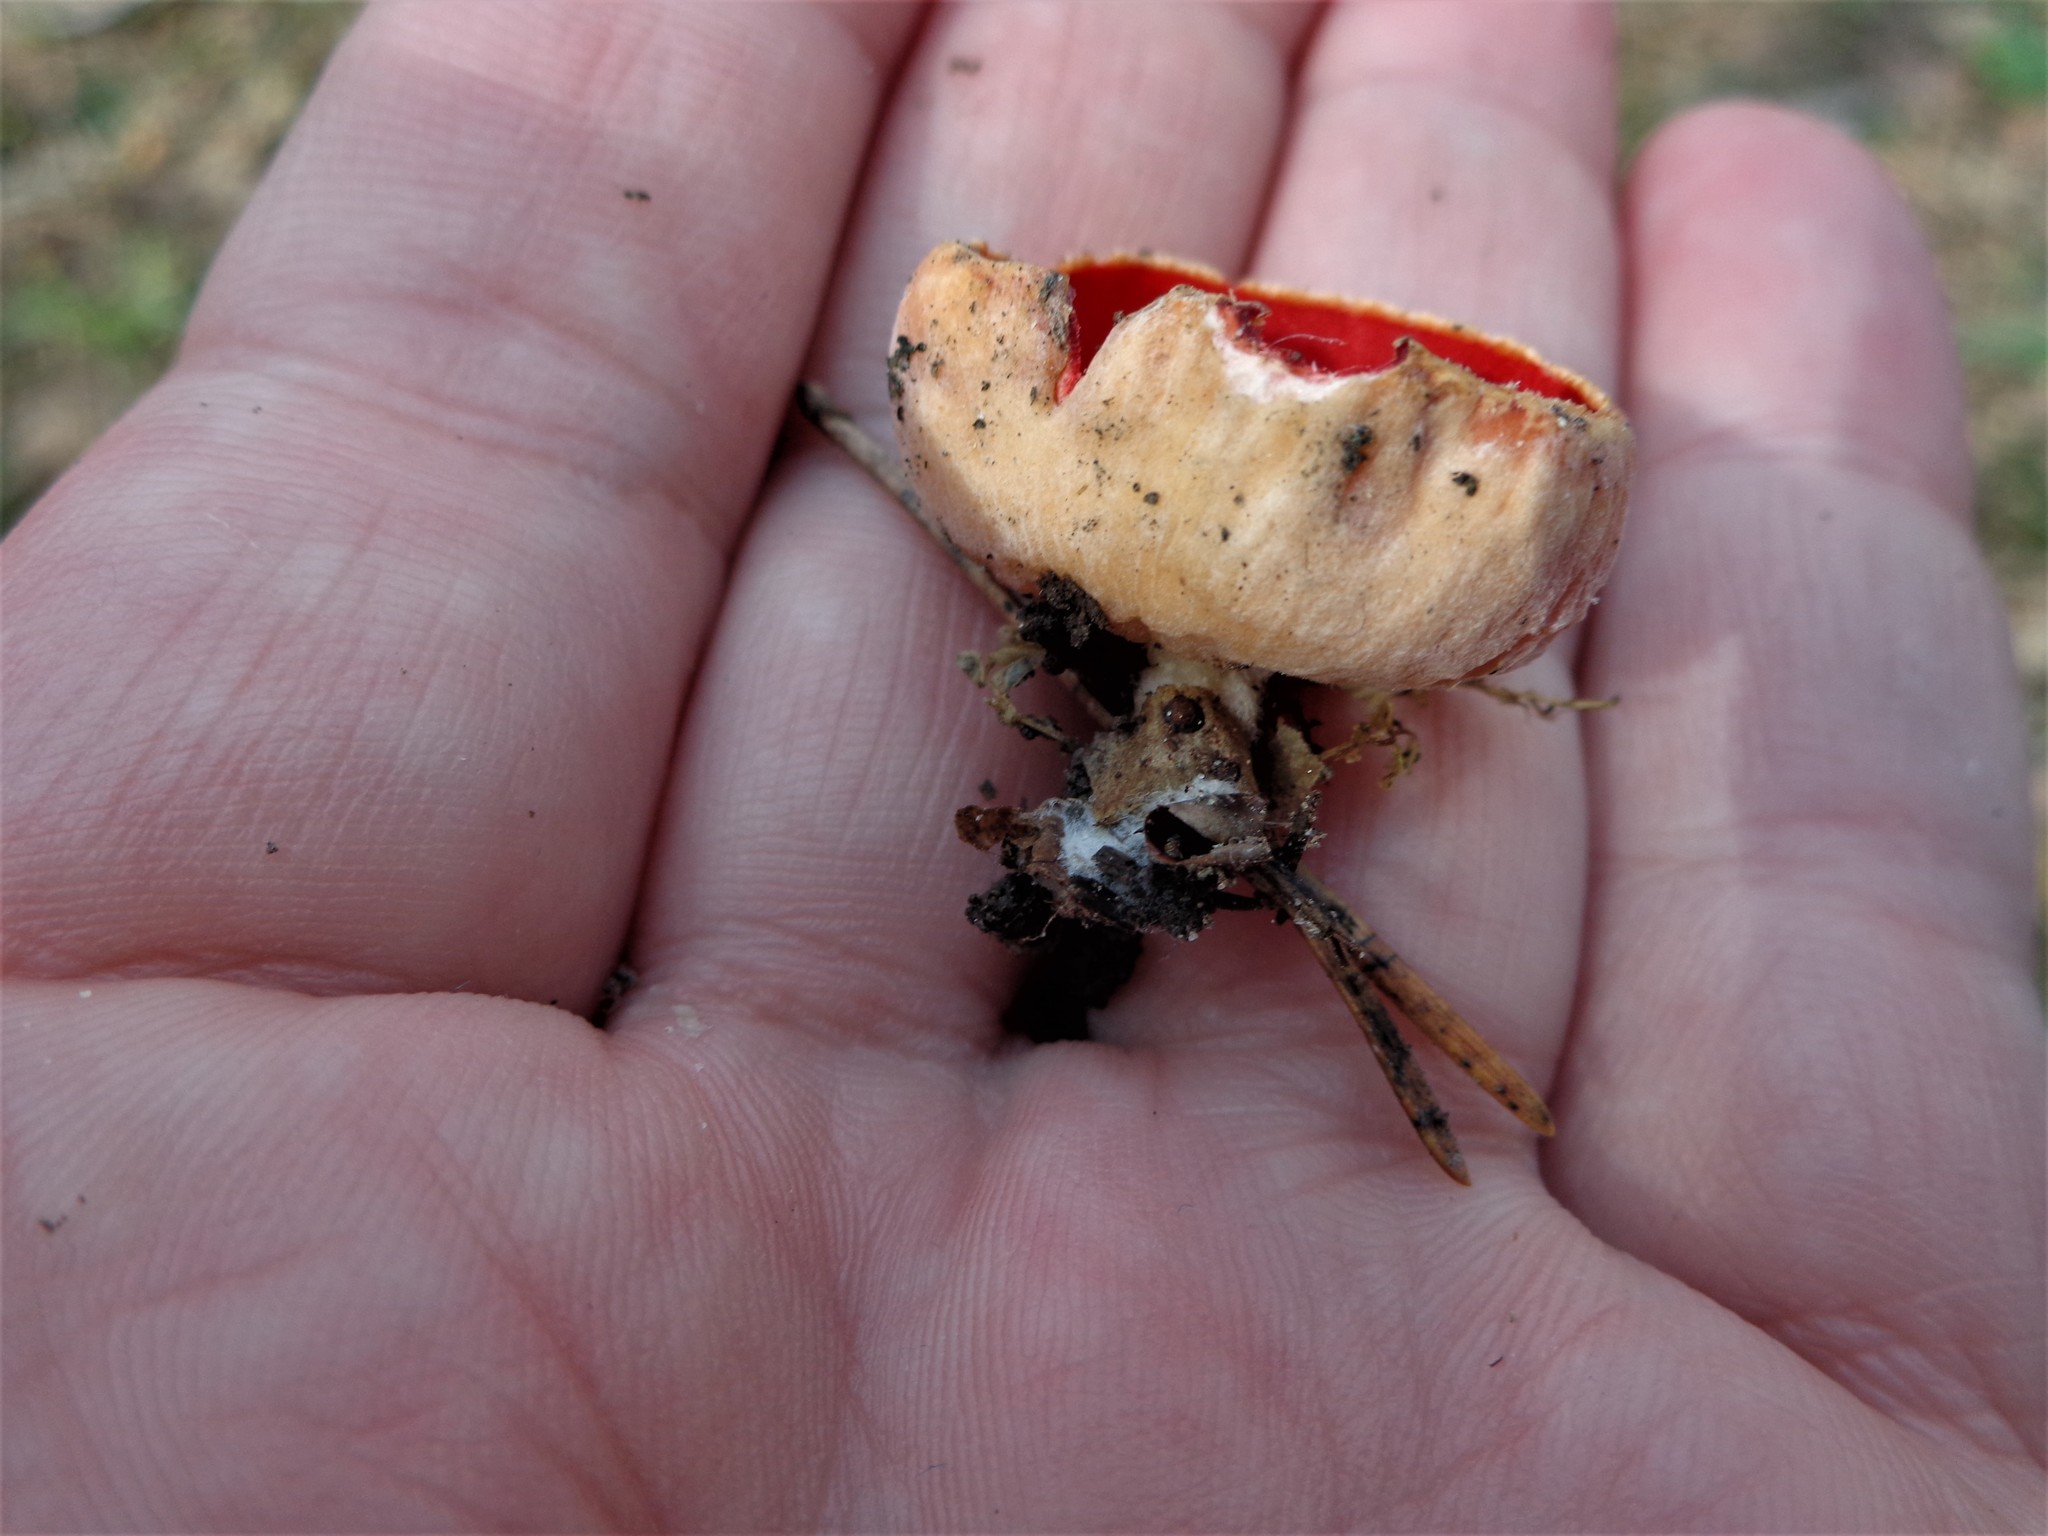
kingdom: Fungi
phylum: Ascomycota
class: Pezizomycetes
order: Pezizales
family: Sarcoscyphaceae
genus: Sarcoscypha
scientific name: Sarcoscypha austriaca
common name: Scarlet elfcup
